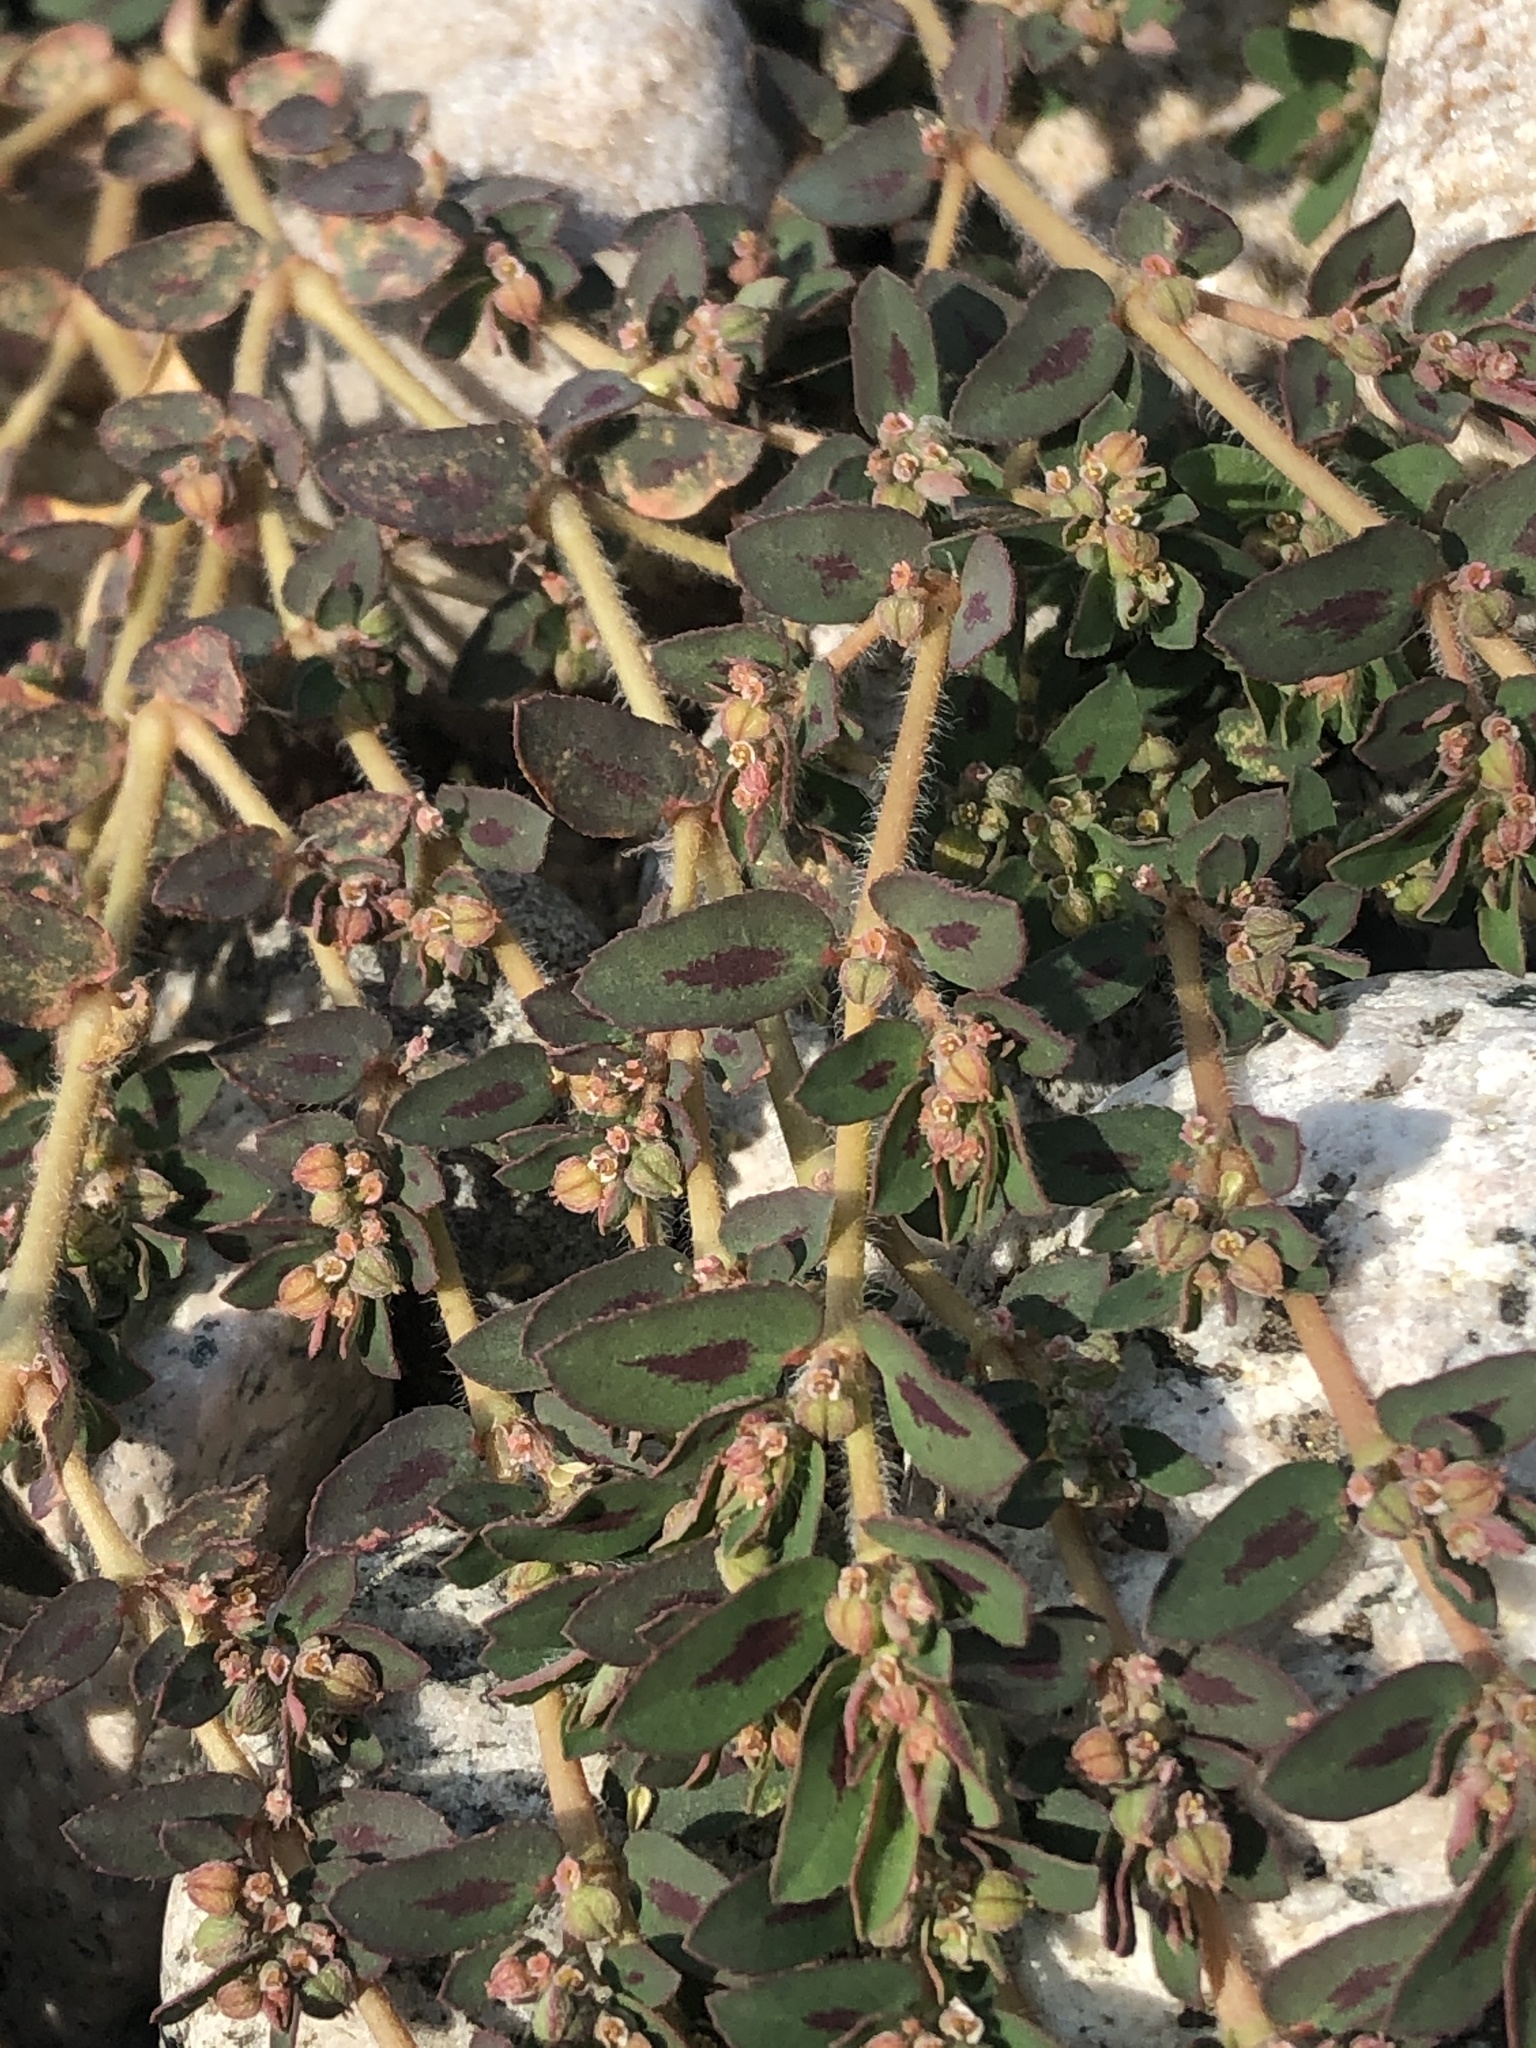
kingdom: Plantae
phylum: Tracheophyta
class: Magnoliopsida
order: Malpighiales
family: Euphorbiaceae
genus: Euphorbia
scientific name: Euphorbia maculata
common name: Spotted spurge
